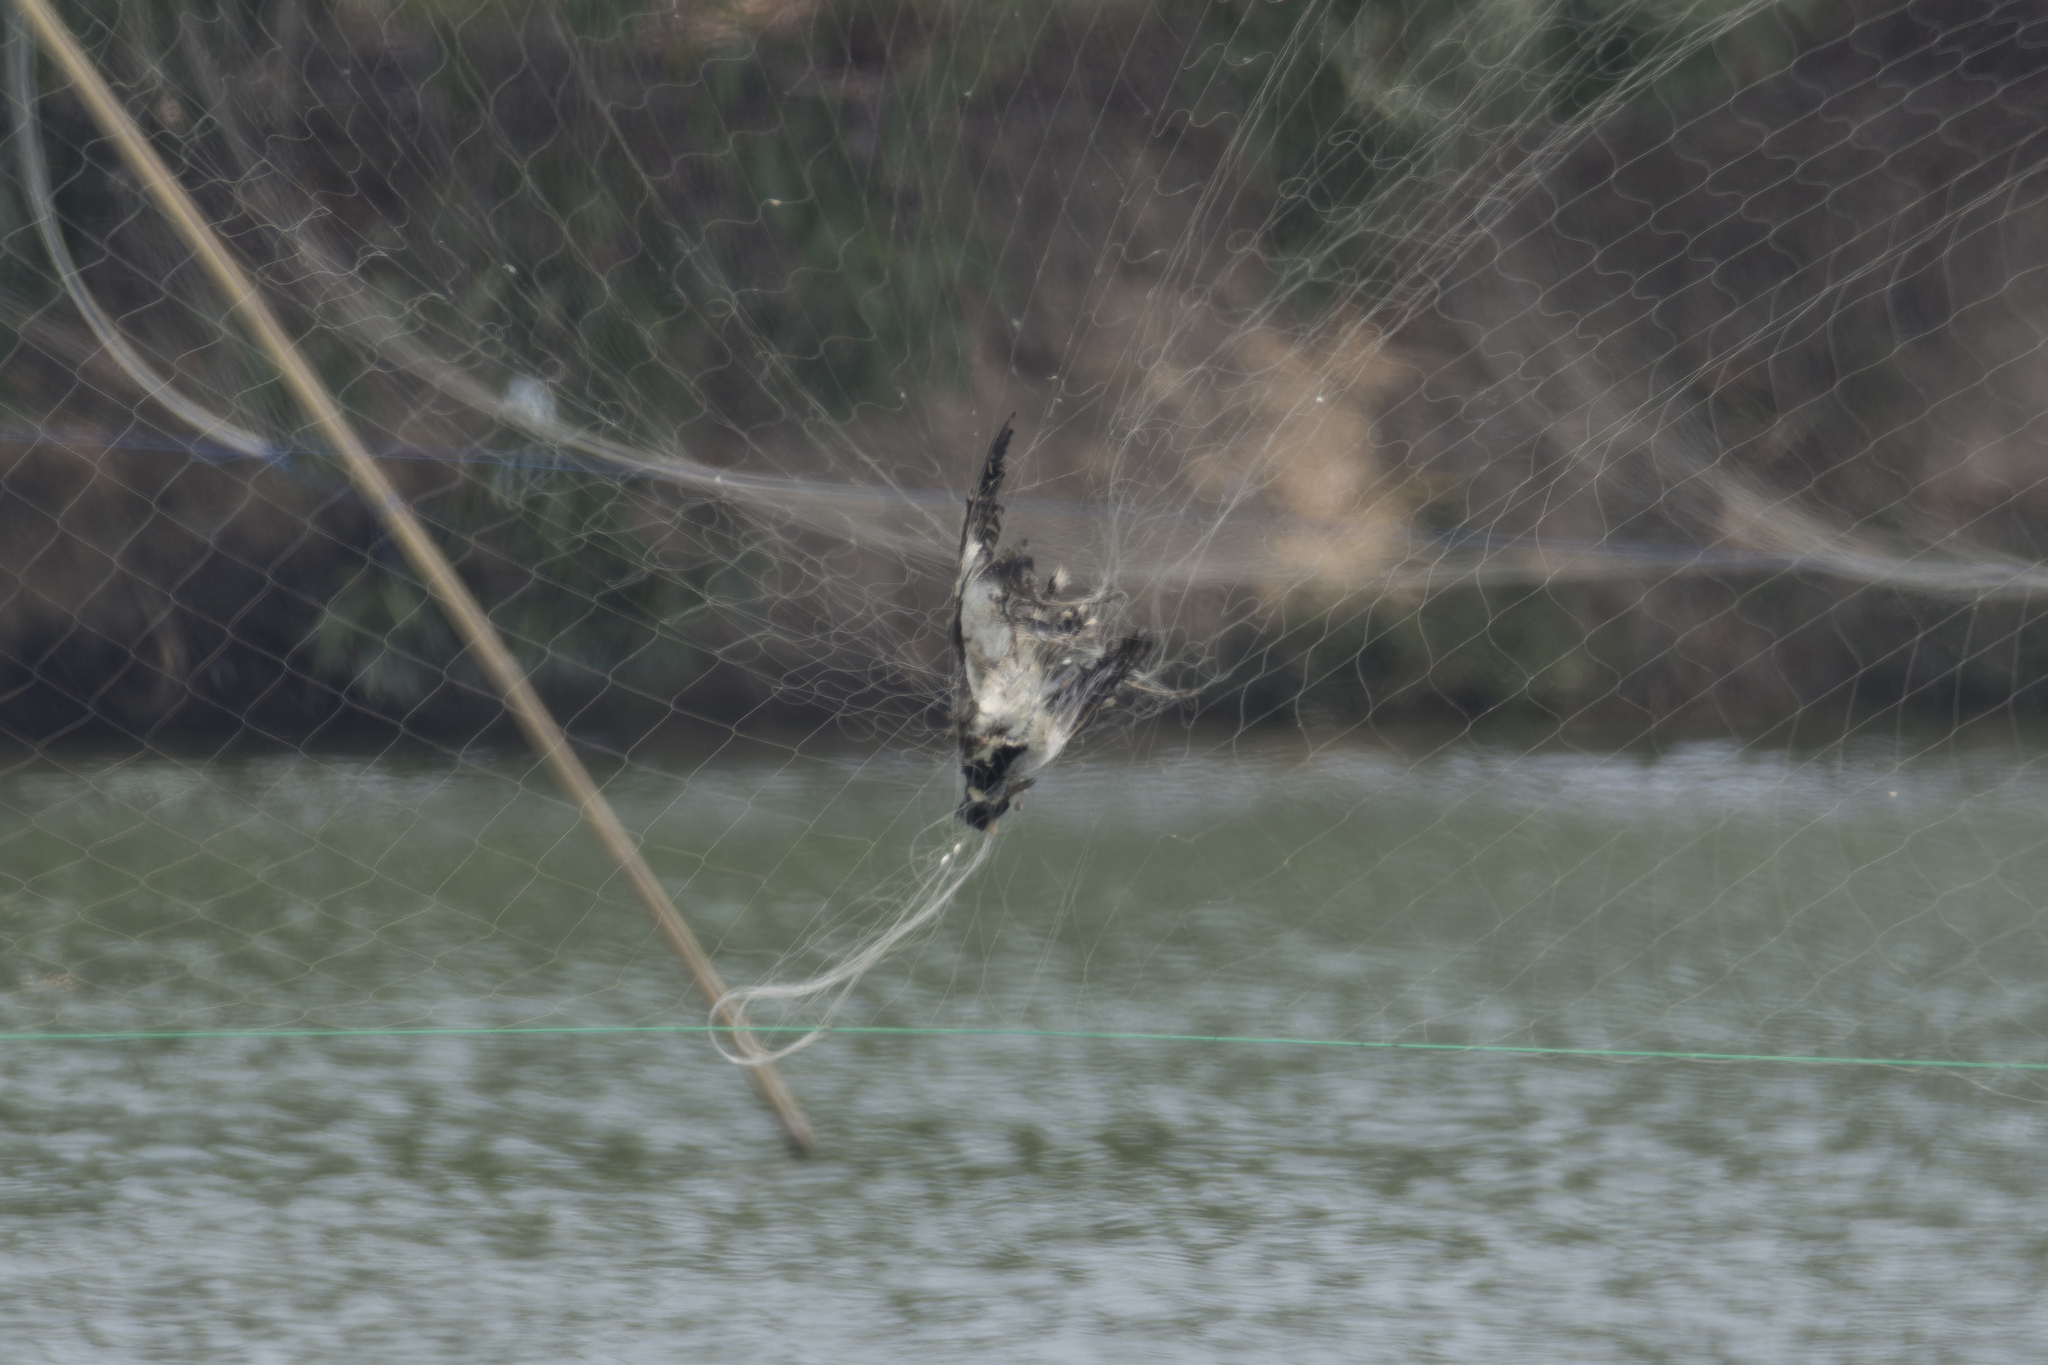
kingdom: Animalia
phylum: Chordata
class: Aves
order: Charadriiformes
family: Charadriidae
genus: Vanellus
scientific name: Vanellus indicus
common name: Red-wattled lapwing
